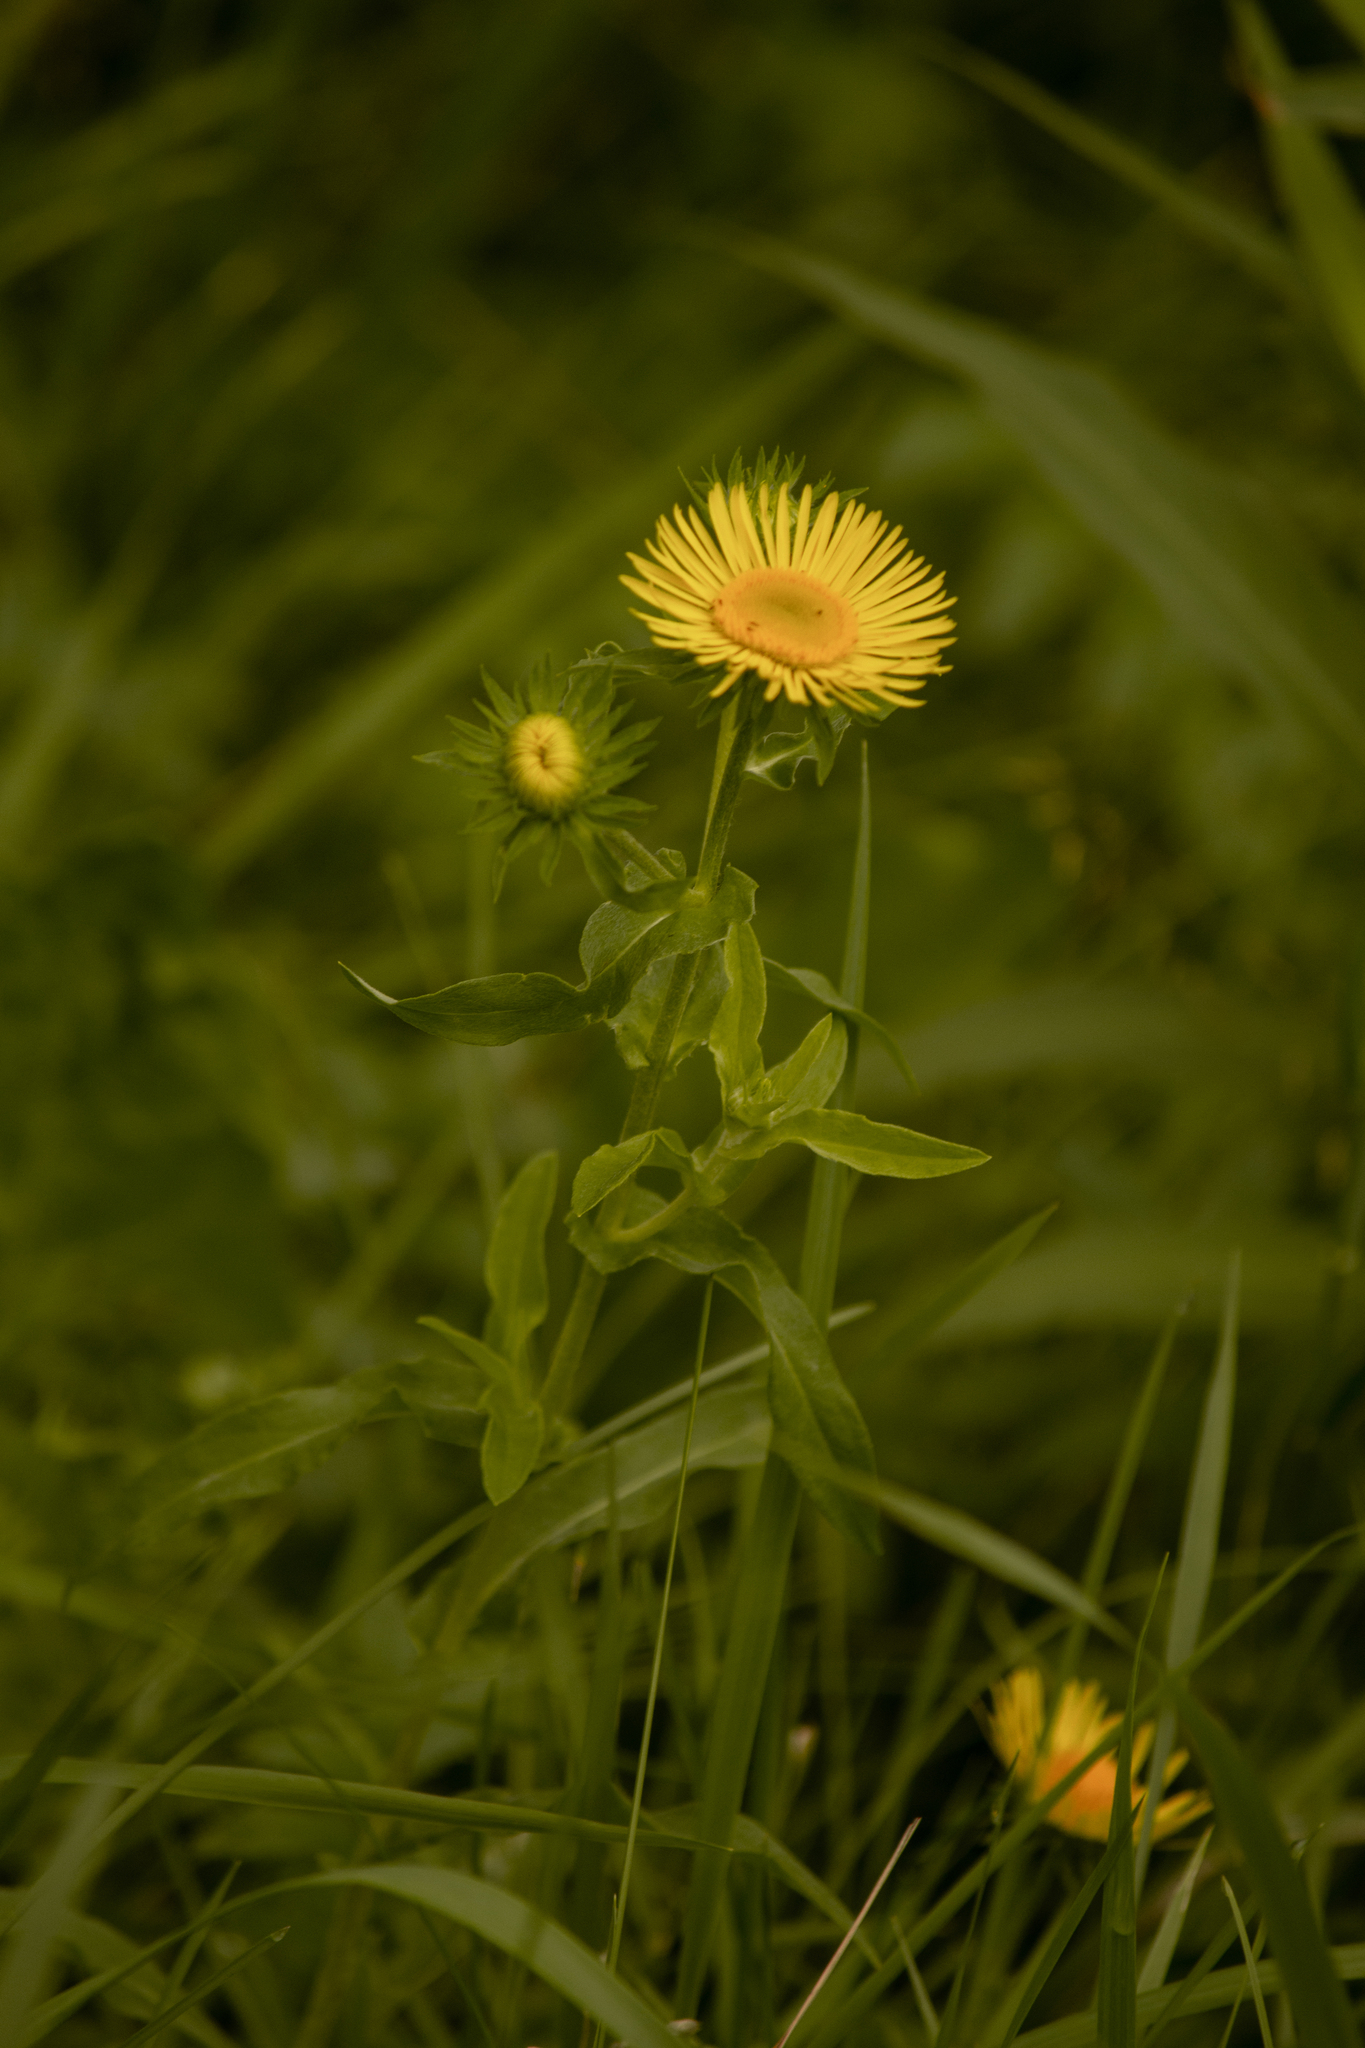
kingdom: Plantae
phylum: Tracheophyta
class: Magnoliopsida
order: Asterales
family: Asteraceae
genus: Pentanema
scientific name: Pentanema britannicum
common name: British elecampane
